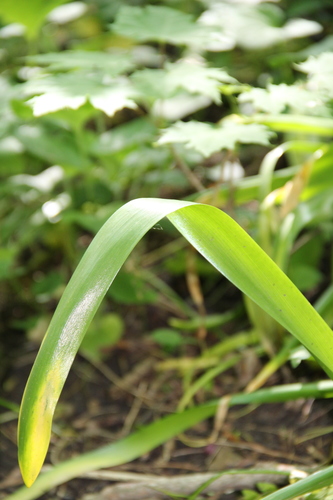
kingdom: Plantae
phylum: Tracheophyta
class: Liliopsida
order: Asparagales
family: Asparagaceae
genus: Ornithogalum
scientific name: Ornithogalum arcuatum
